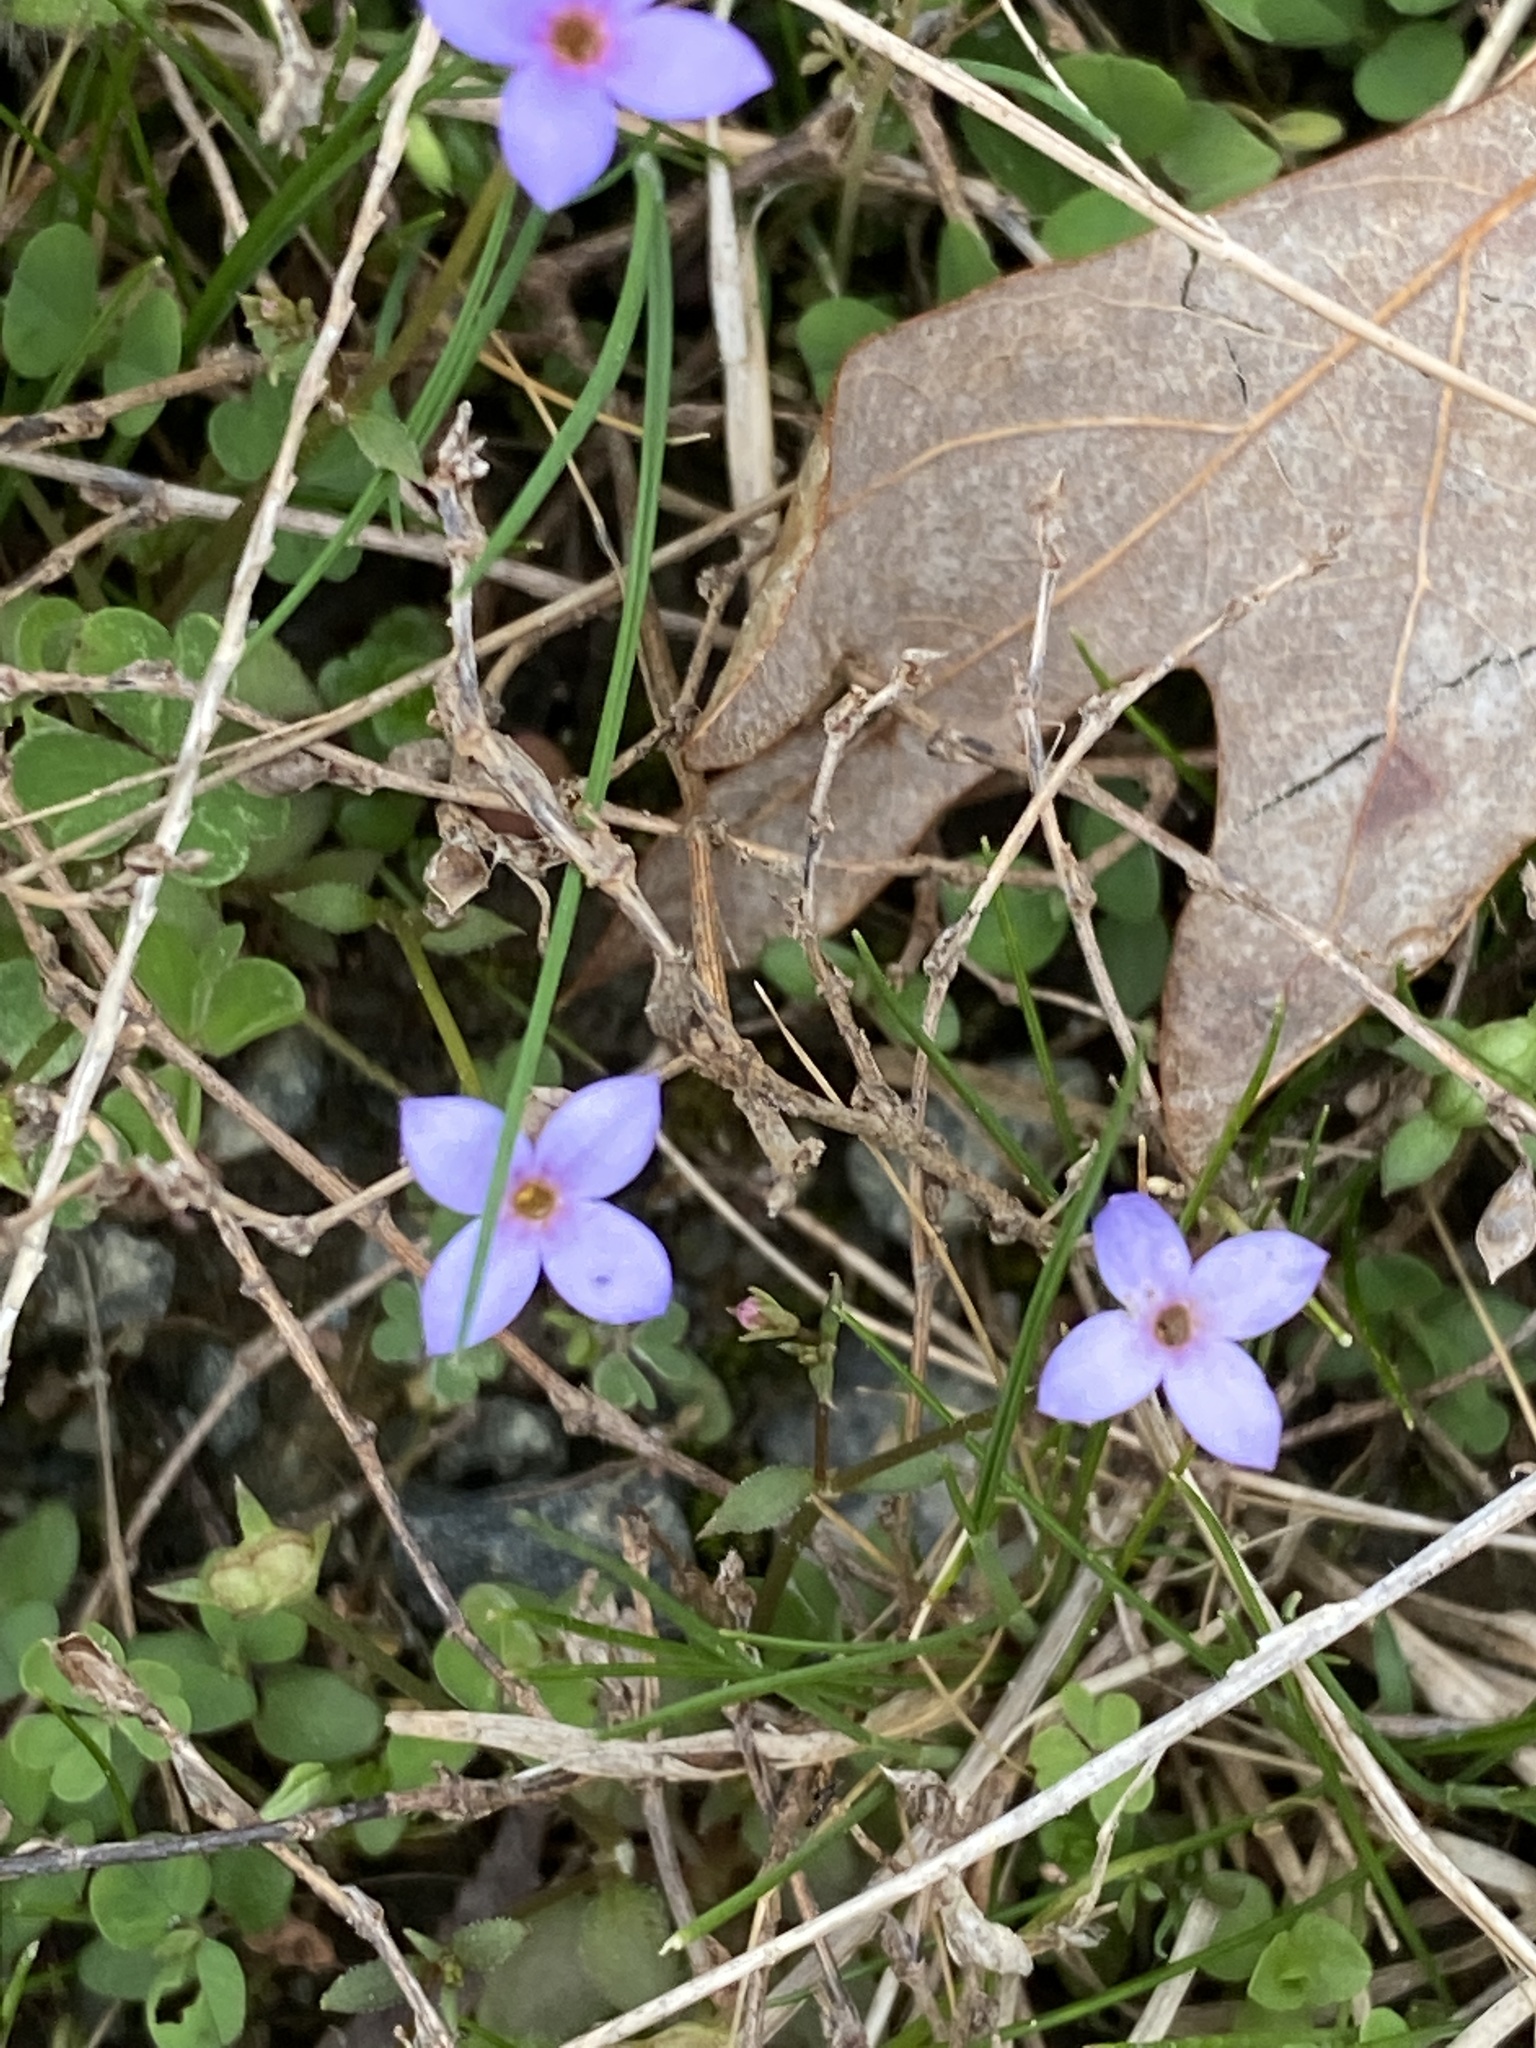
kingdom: Plantae
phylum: Tracheophyta
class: Magnoliopsida
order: Gentianales
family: Rubiaceae
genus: Houstonia
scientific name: Houstonia pusilla
